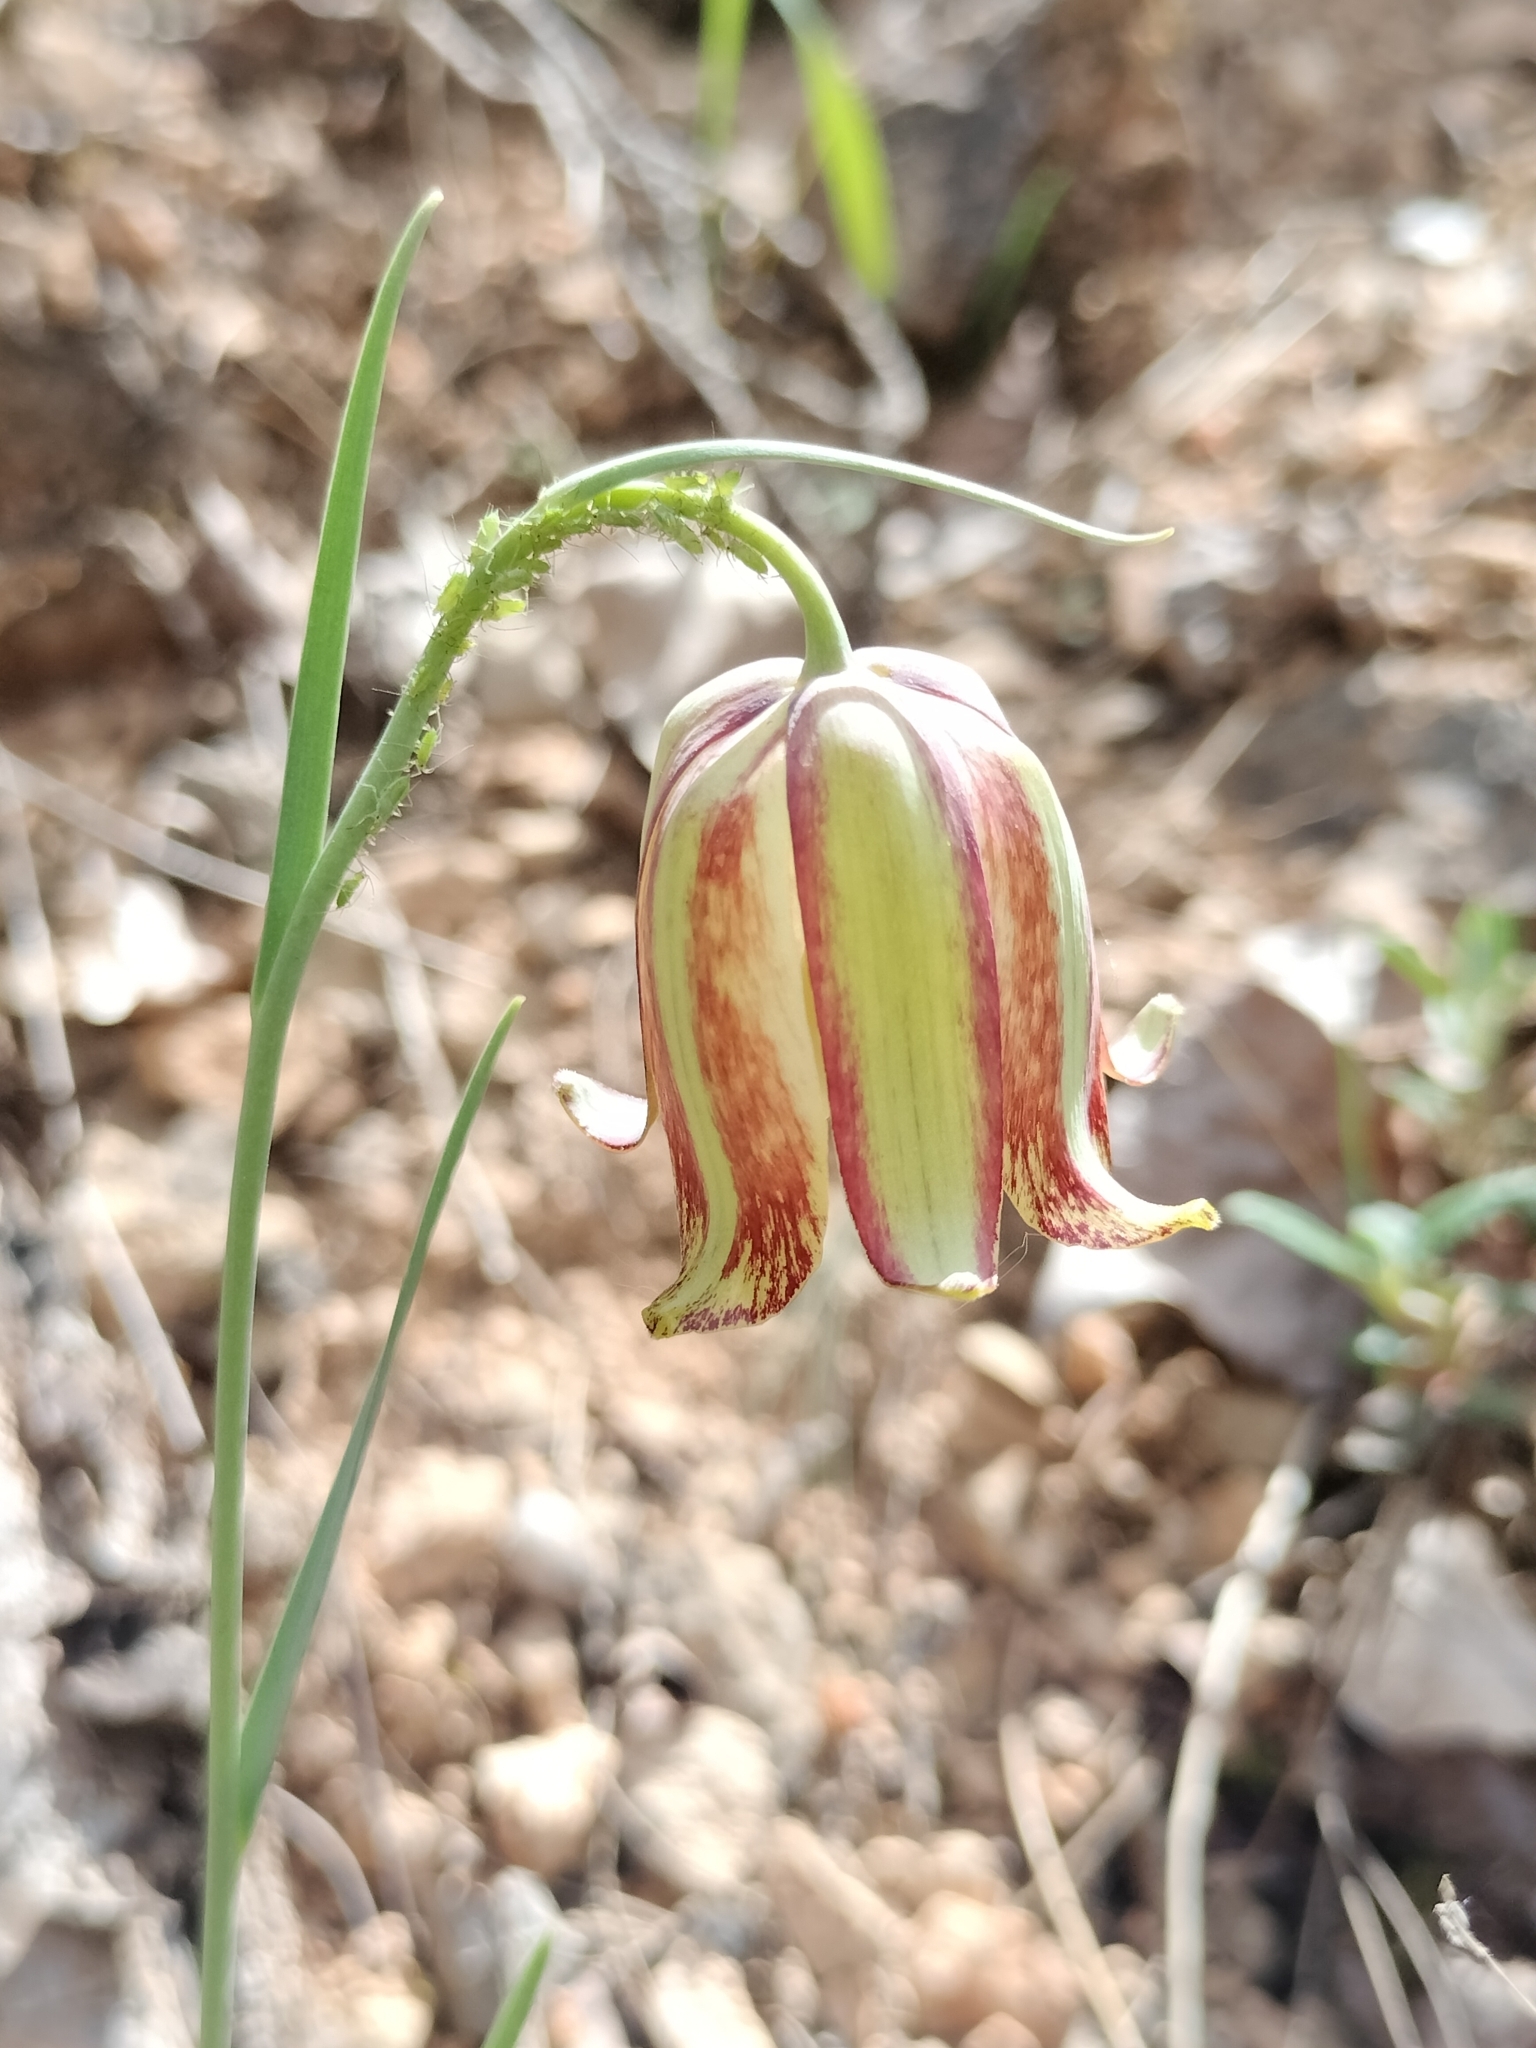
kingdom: Plantae
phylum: Tracheophyta
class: Liliopsida
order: Liliales
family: Liliaceae
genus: Fritillaria
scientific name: Fritillaria lusitanica
